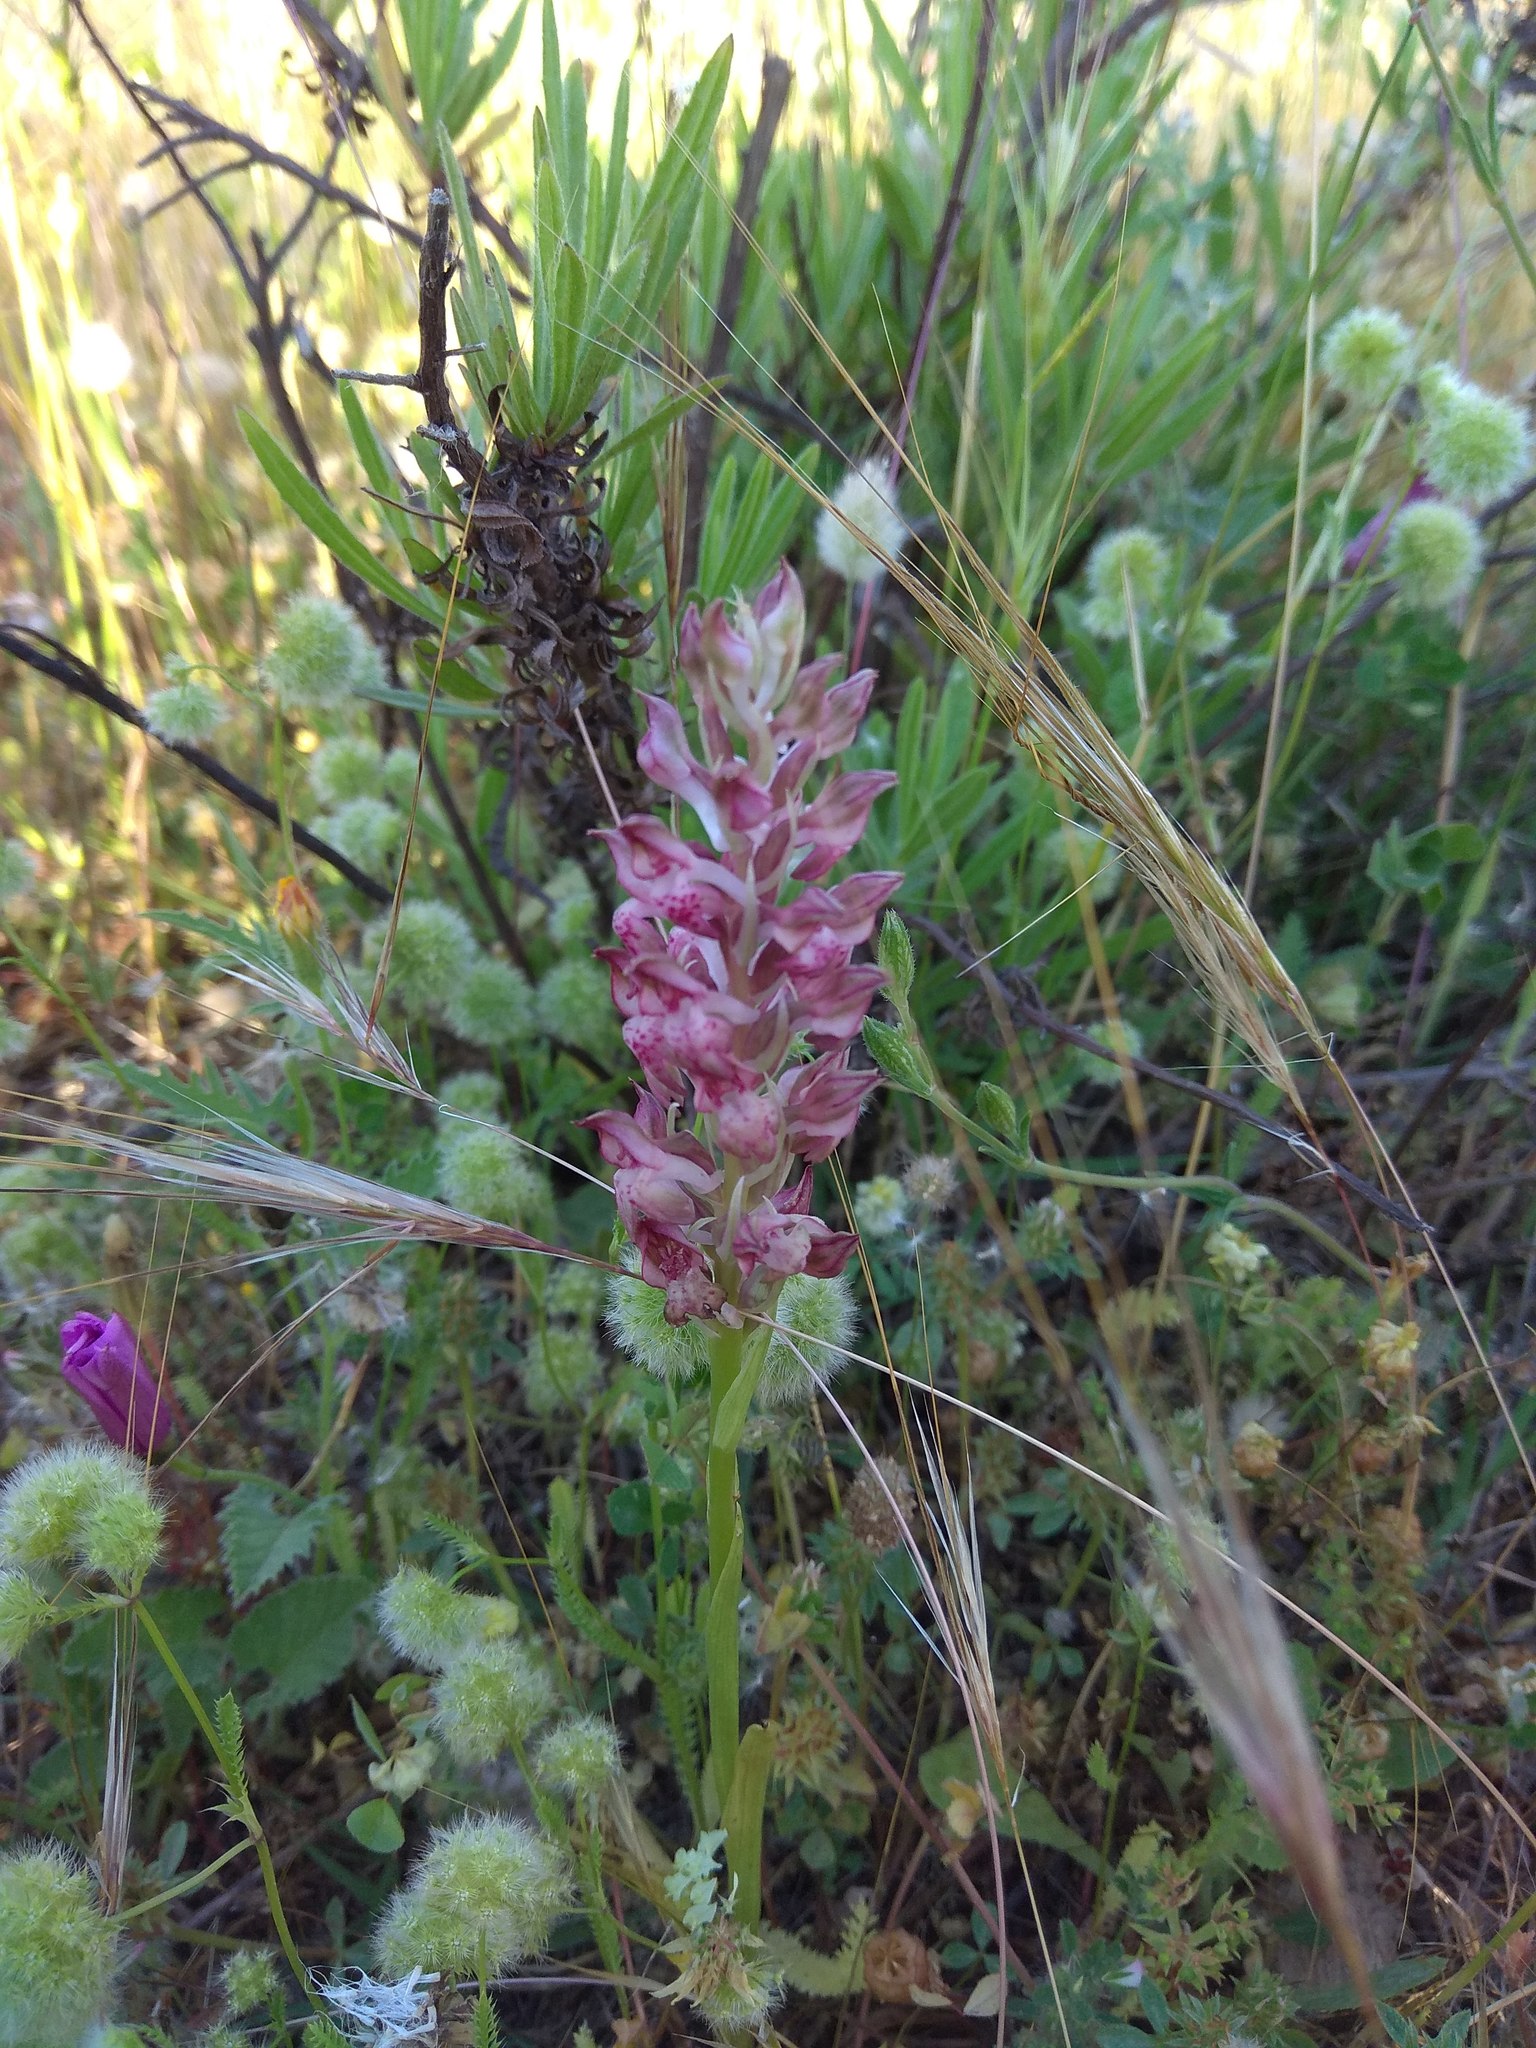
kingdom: Plantae
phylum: Tracheophyta
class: Liliopsida
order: Asparagales
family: Orchidaceae
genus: Anacamptis
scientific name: Anacamptis coriophora
